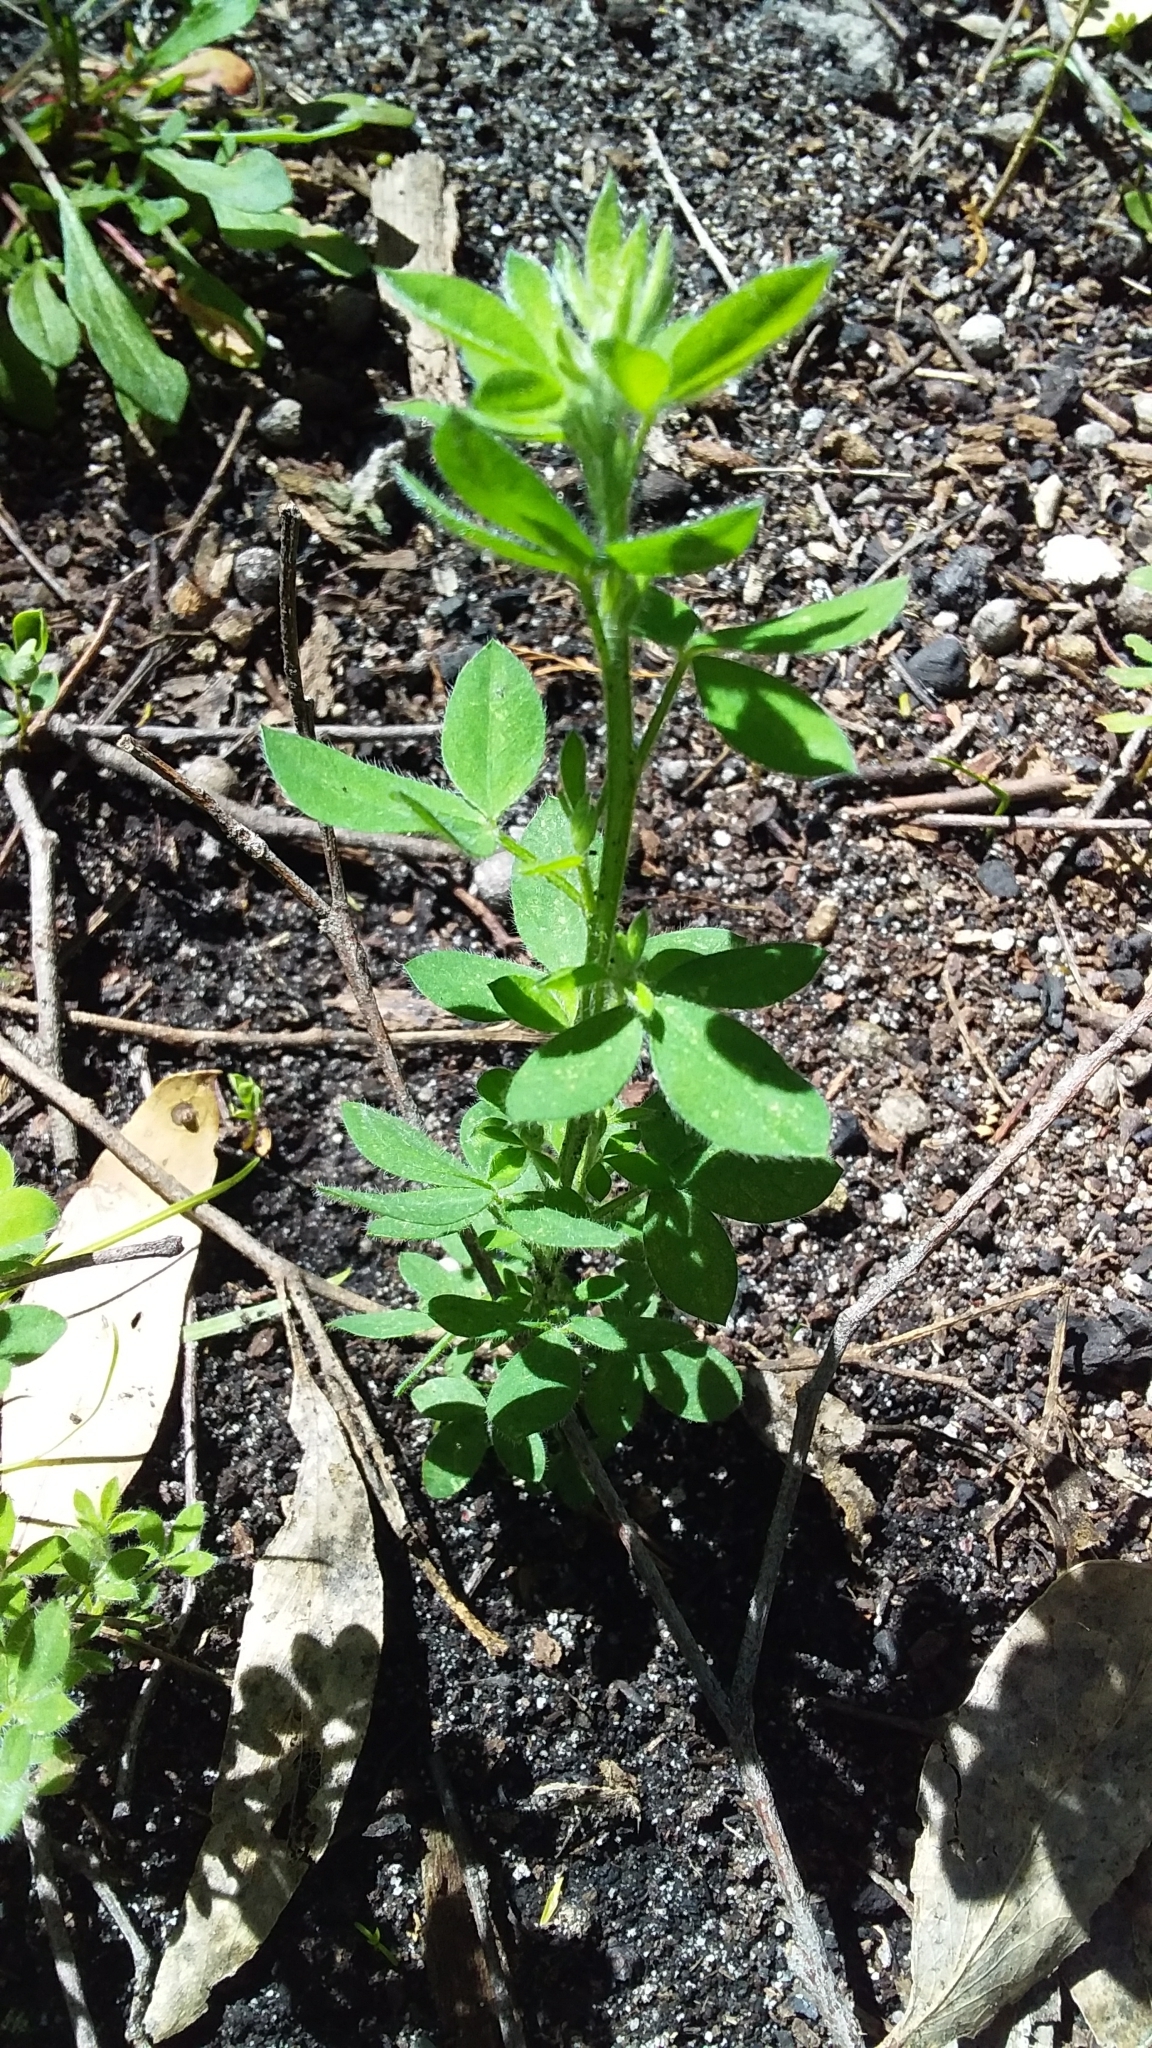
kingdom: Plantae
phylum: Tracheophyta
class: Magnoliopsida
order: Fabales
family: Fabaceae
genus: Genista
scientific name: Genista monspessulana
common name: Montpellier broom
